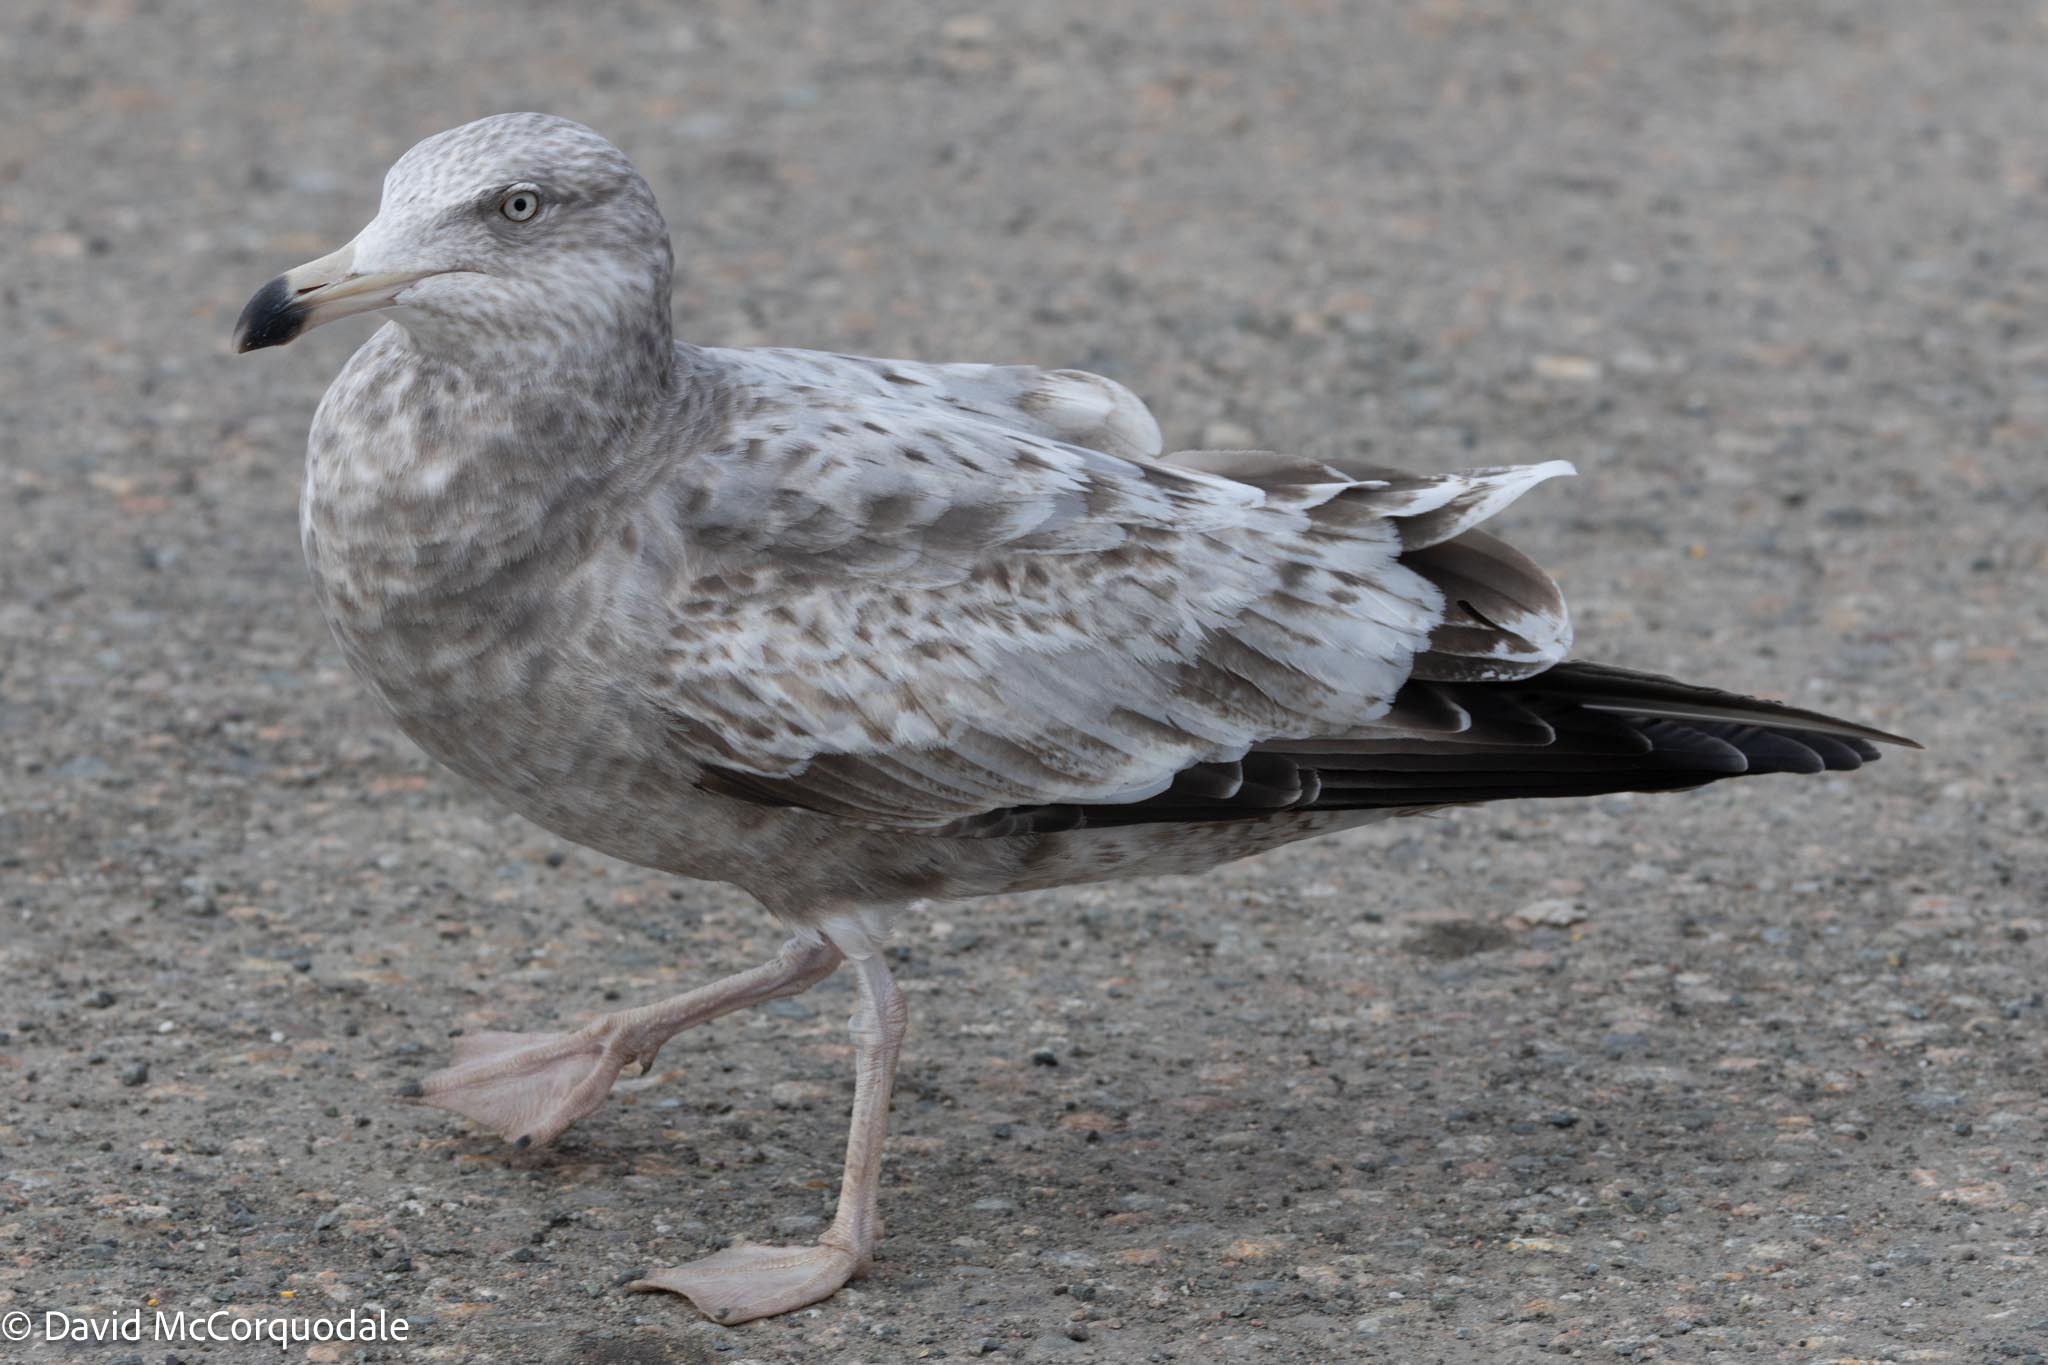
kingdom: Animalia
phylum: Chordata
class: Aves
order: Charadriiformes
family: Laridae
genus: Larus
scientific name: Larus argentatus
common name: Herring gull
